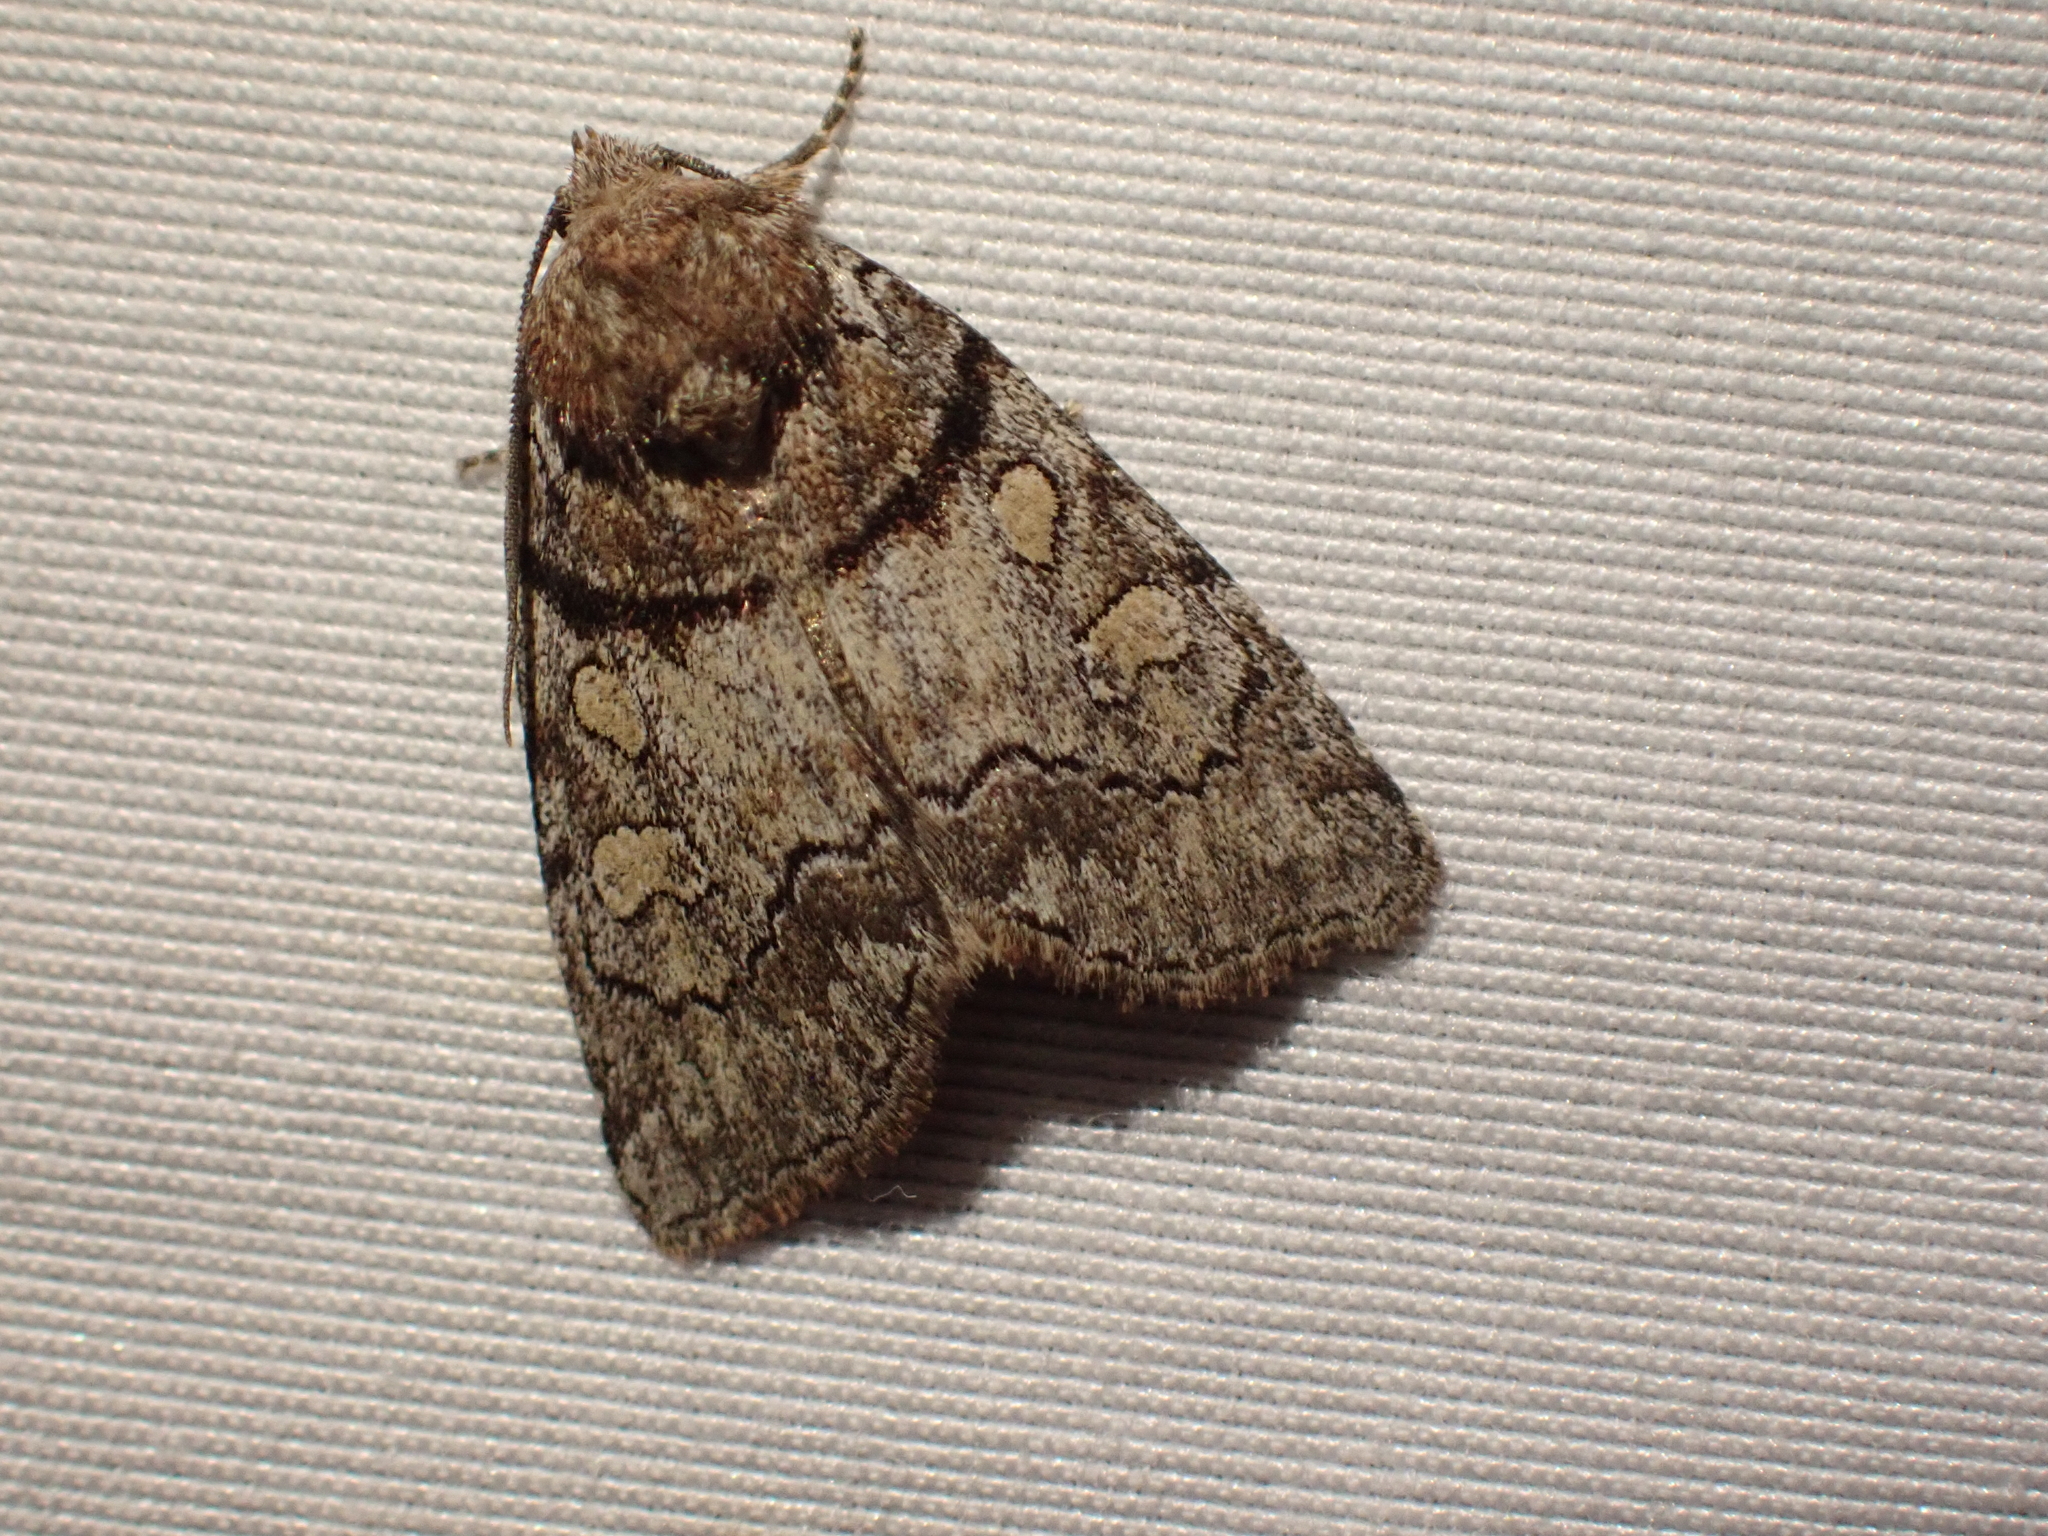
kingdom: Animalia
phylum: Arthropoda
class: Insecta
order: Lepidoptera
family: Noctuidae
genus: Cosmia
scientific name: Cosmia praeacuta
